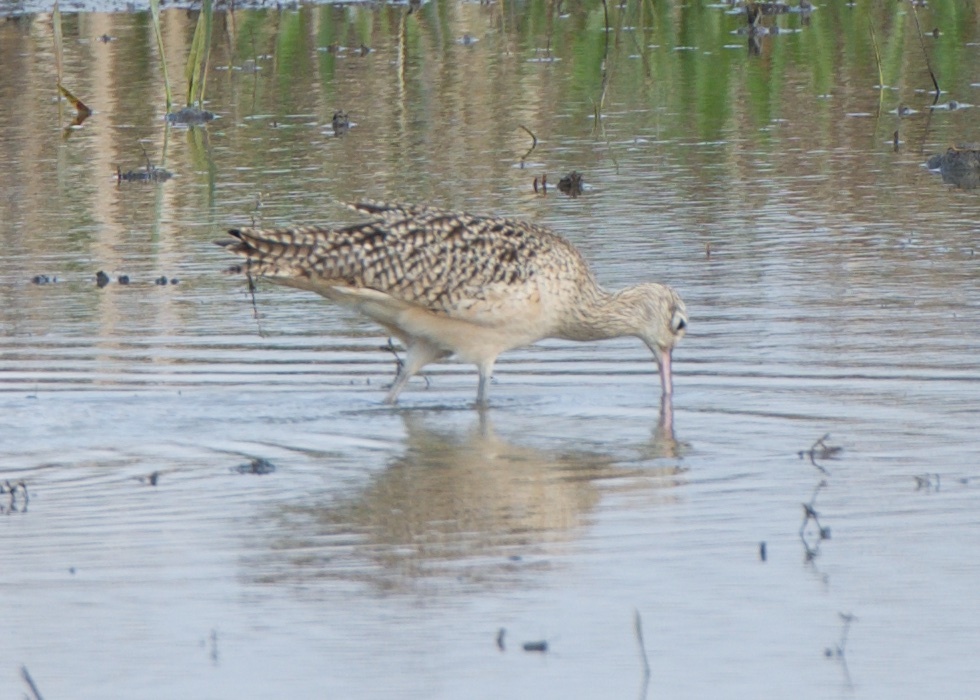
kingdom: Animalia
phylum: Chordata
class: Aves
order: Charadriiformes
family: Scolopacidae
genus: Numenius
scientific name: Numenius americanus
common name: Long-billed curlew
